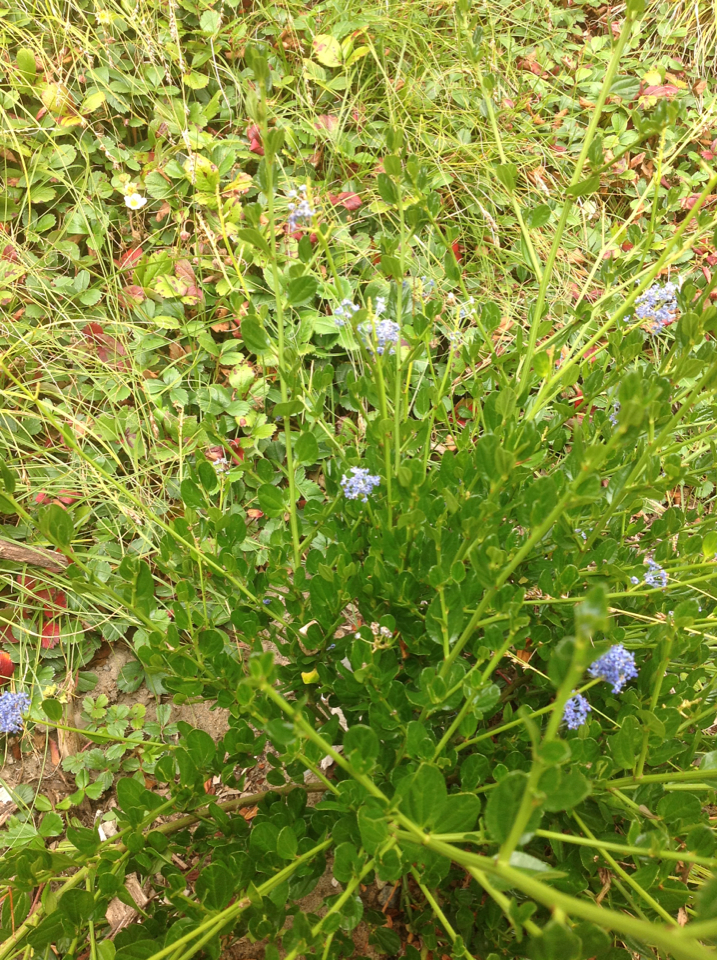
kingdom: Plantae
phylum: Tracheophyta
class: Magnoliopsida
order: Rosales
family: Rhamnaceae
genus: Ceanothus
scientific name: Ceanothus thyrsiflorus
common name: California-lilac
